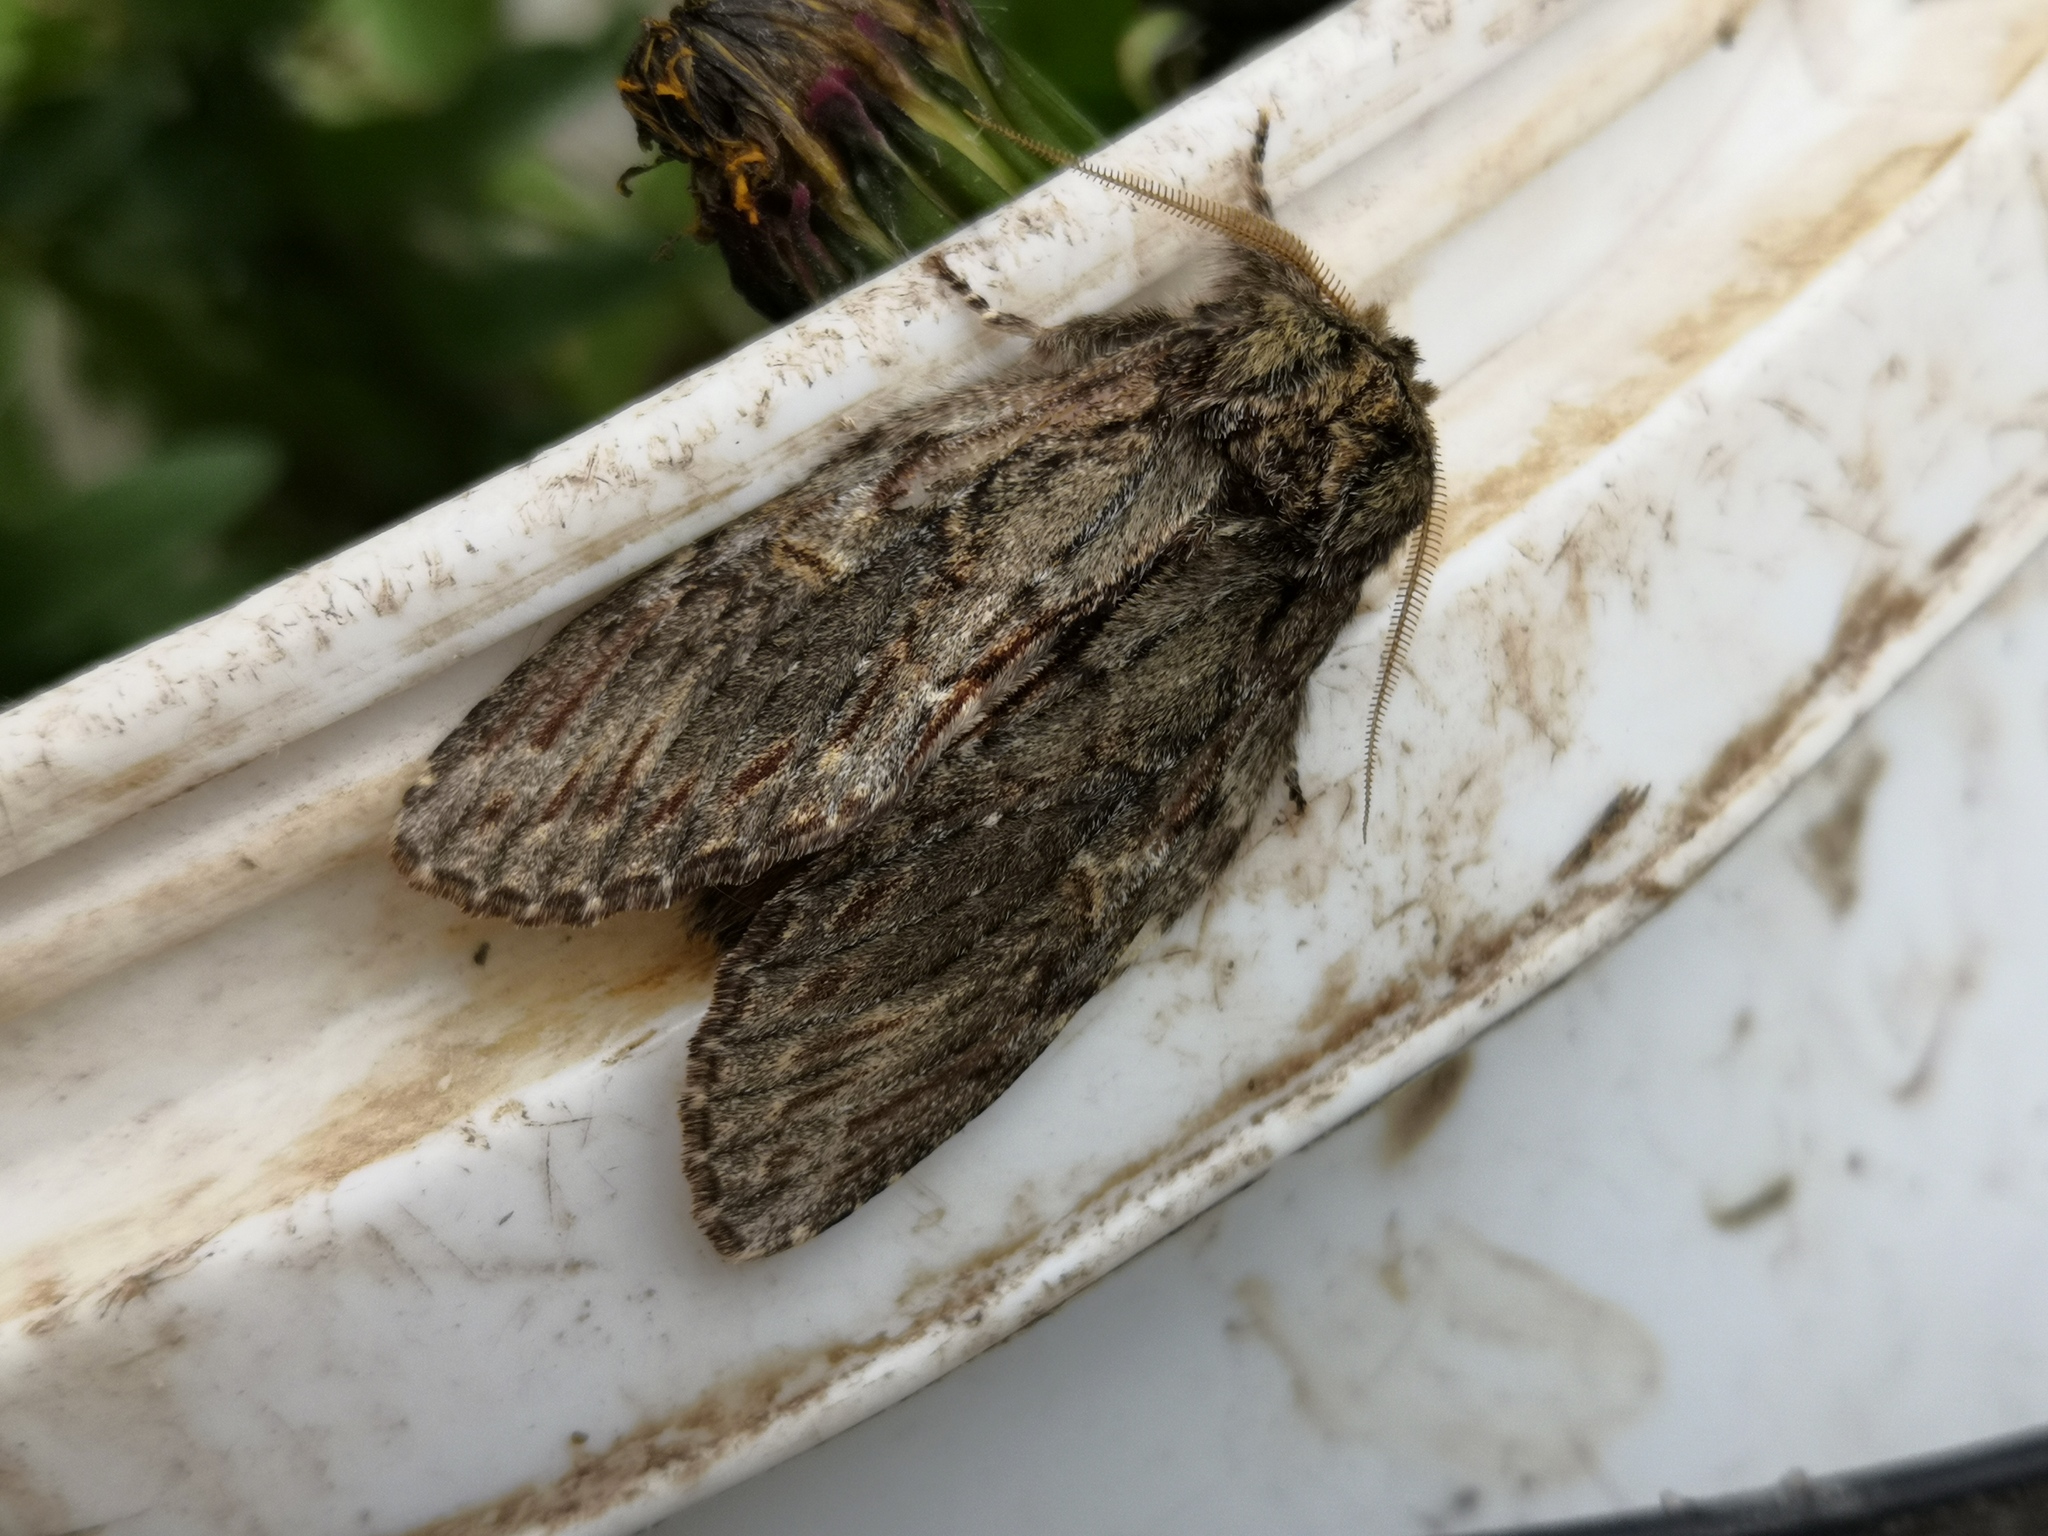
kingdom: Animalia
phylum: Arthropoda
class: Insecta
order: Lepidoptera
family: Notodontidae
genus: Peridea
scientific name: Peridea anceps
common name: Great prominent
